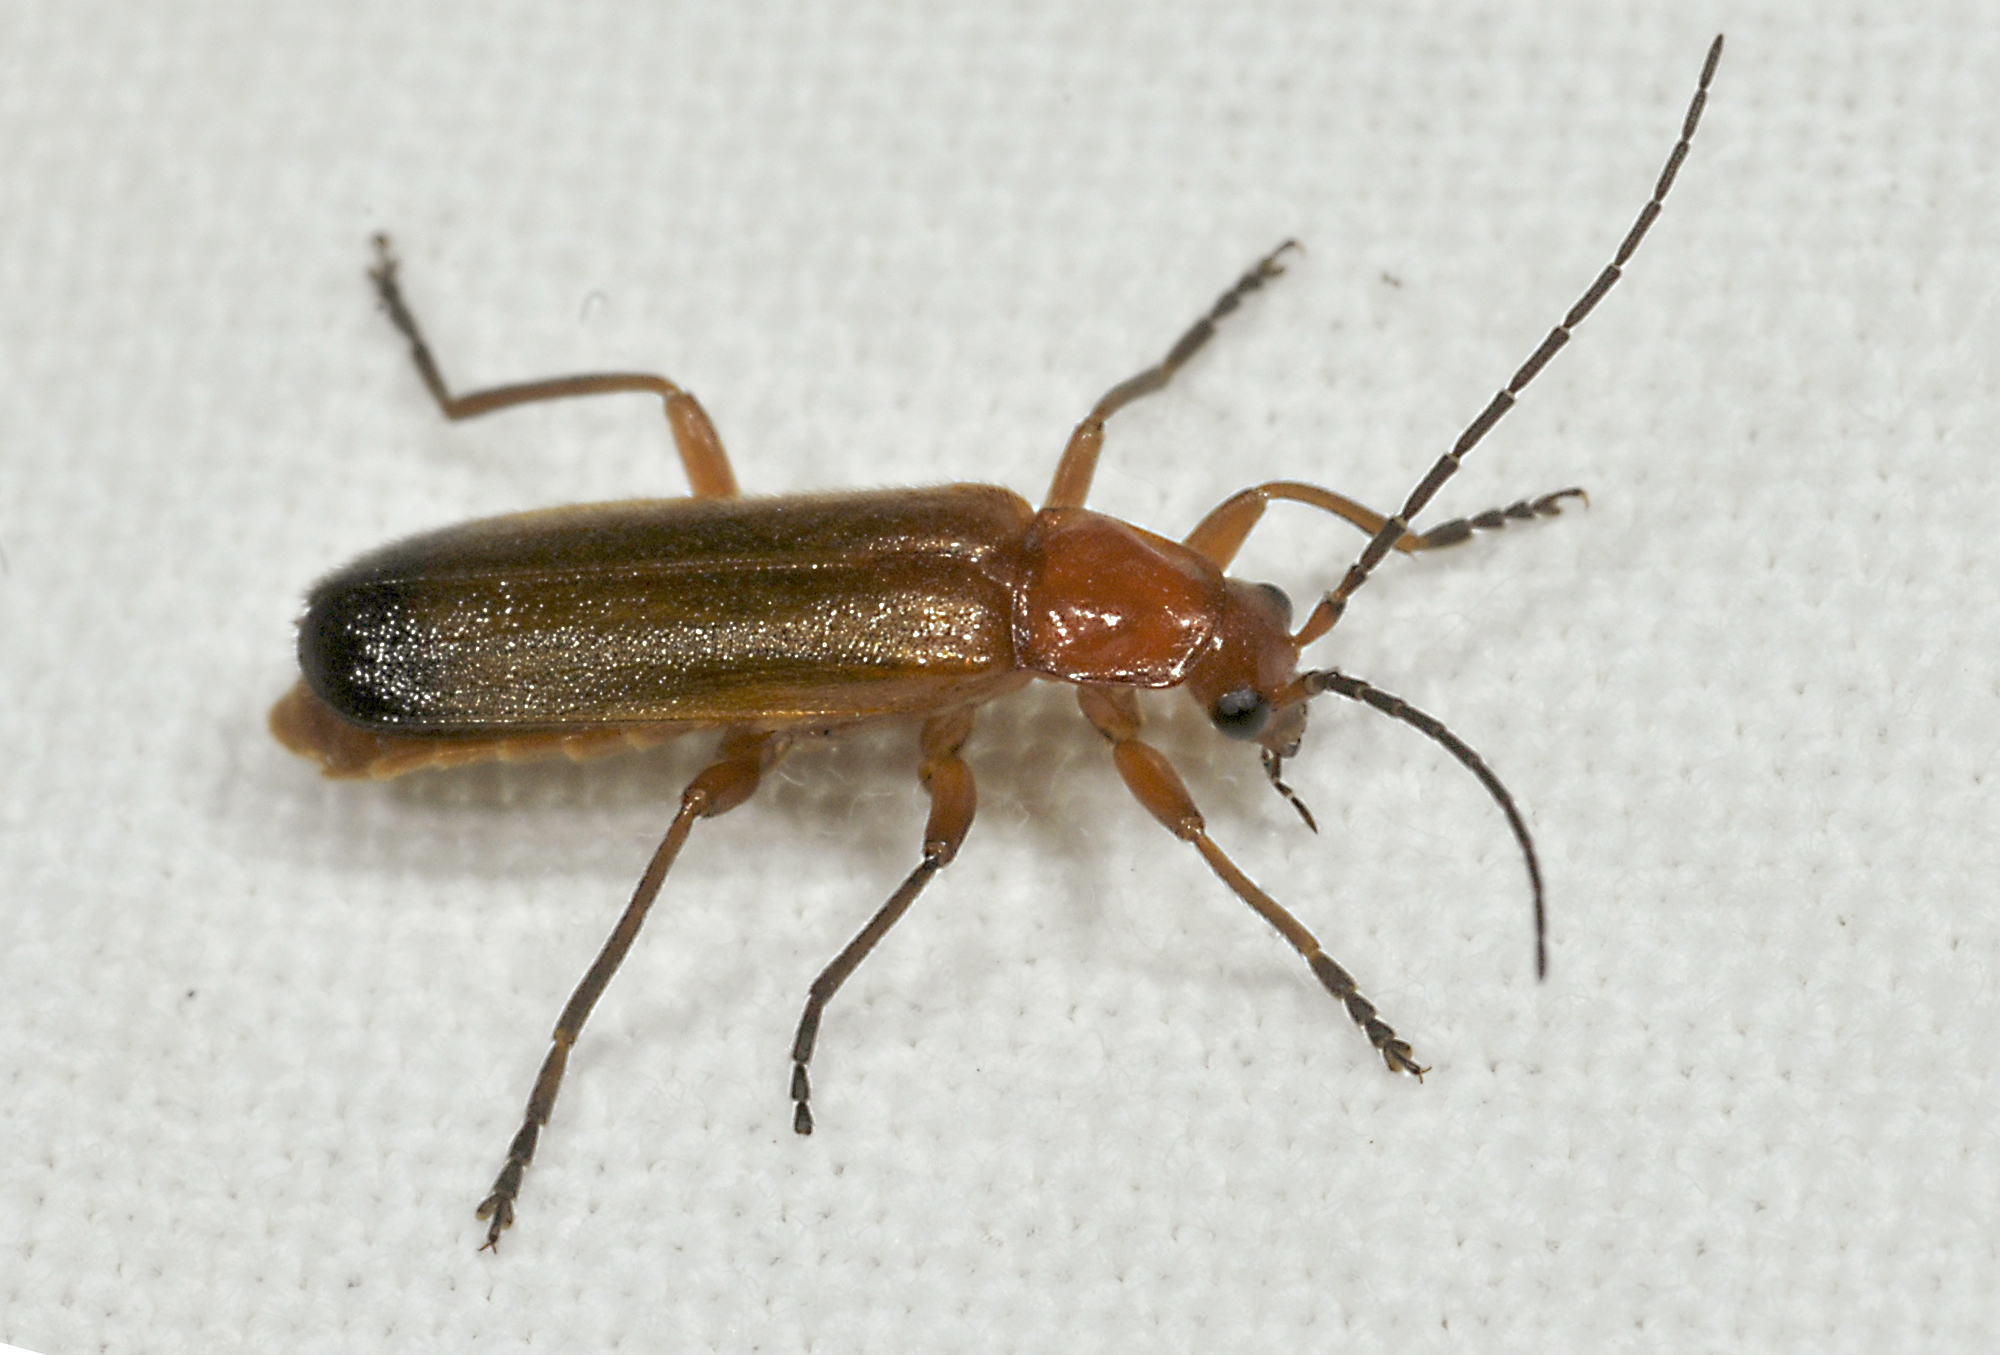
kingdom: Animalia
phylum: Arthropoda
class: Insecta
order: Coleoptera
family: Cantharidae
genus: Rhagonycha
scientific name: Rhagonycha fulva
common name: Common red soldier beetle
